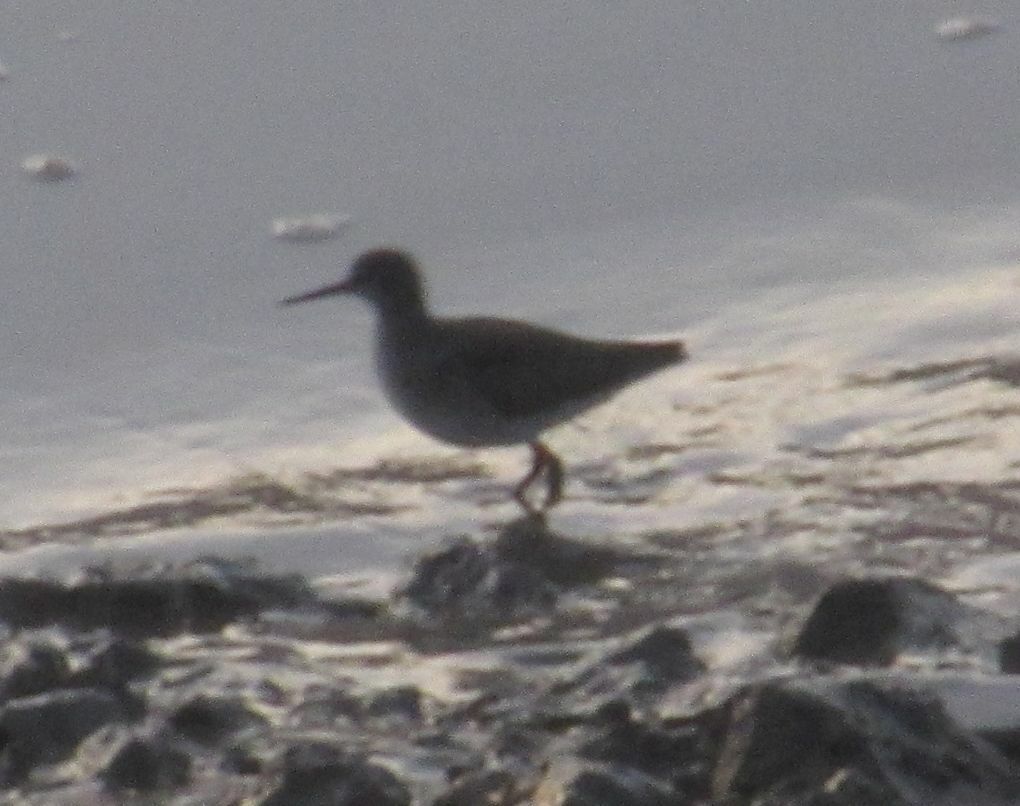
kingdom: Animalia
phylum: Chordata
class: Aves
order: Charadriiformes
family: Scolopacidae
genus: Tringa
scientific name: Tringa totanus
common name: Common redshank
